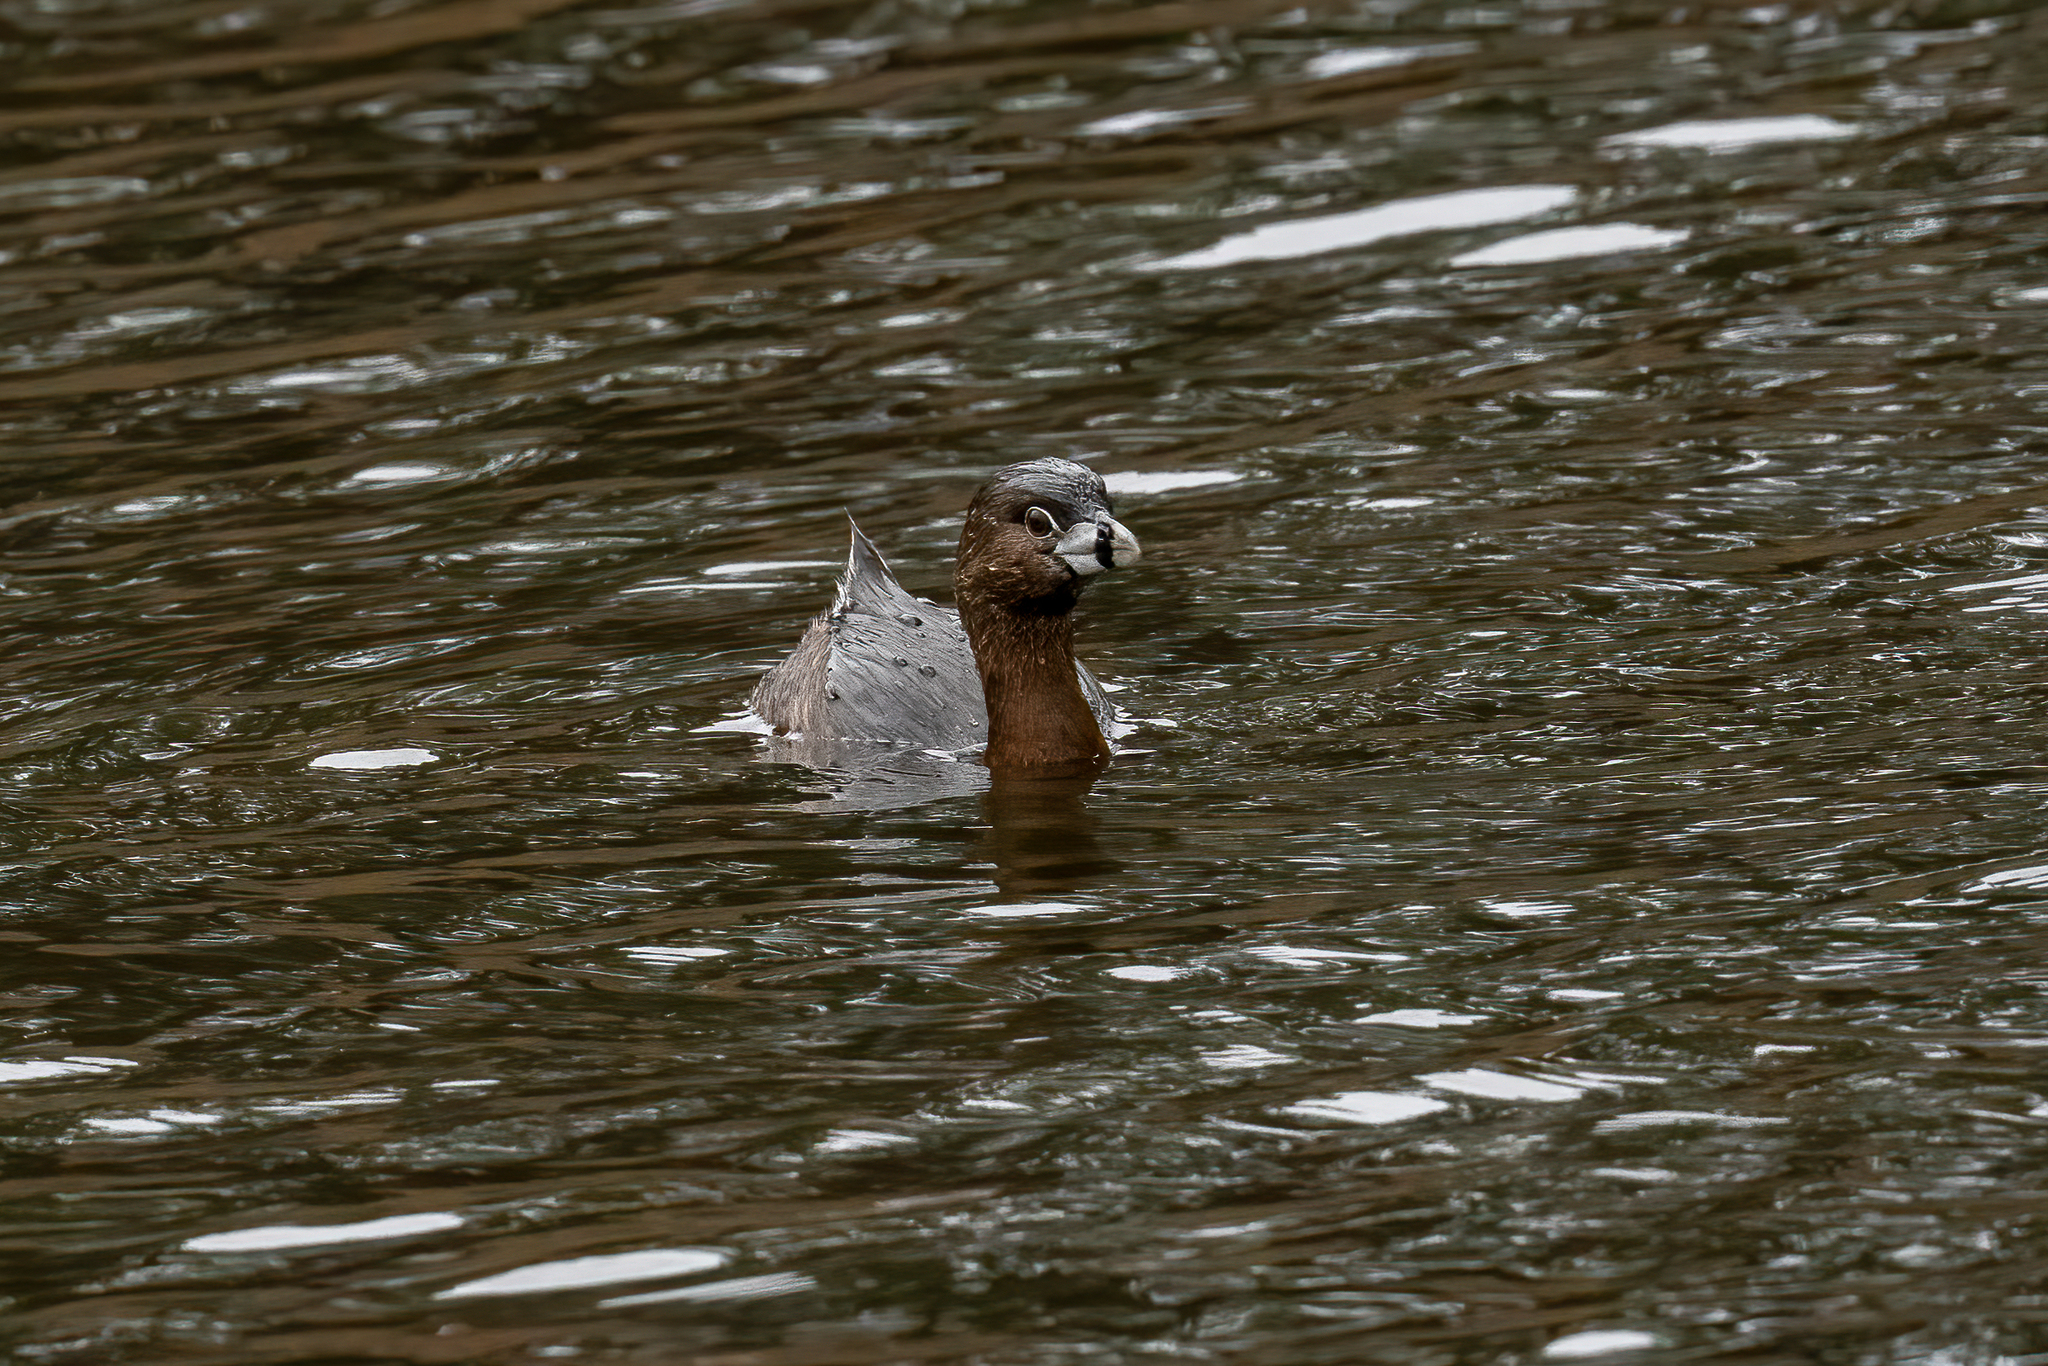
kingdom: Animalia
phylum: Chordata
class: Aves
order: Podicipediformes
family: Podicipedidae
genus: Podilymbus
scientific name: Podilymbus podiceps
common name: Pied-billed grebe
